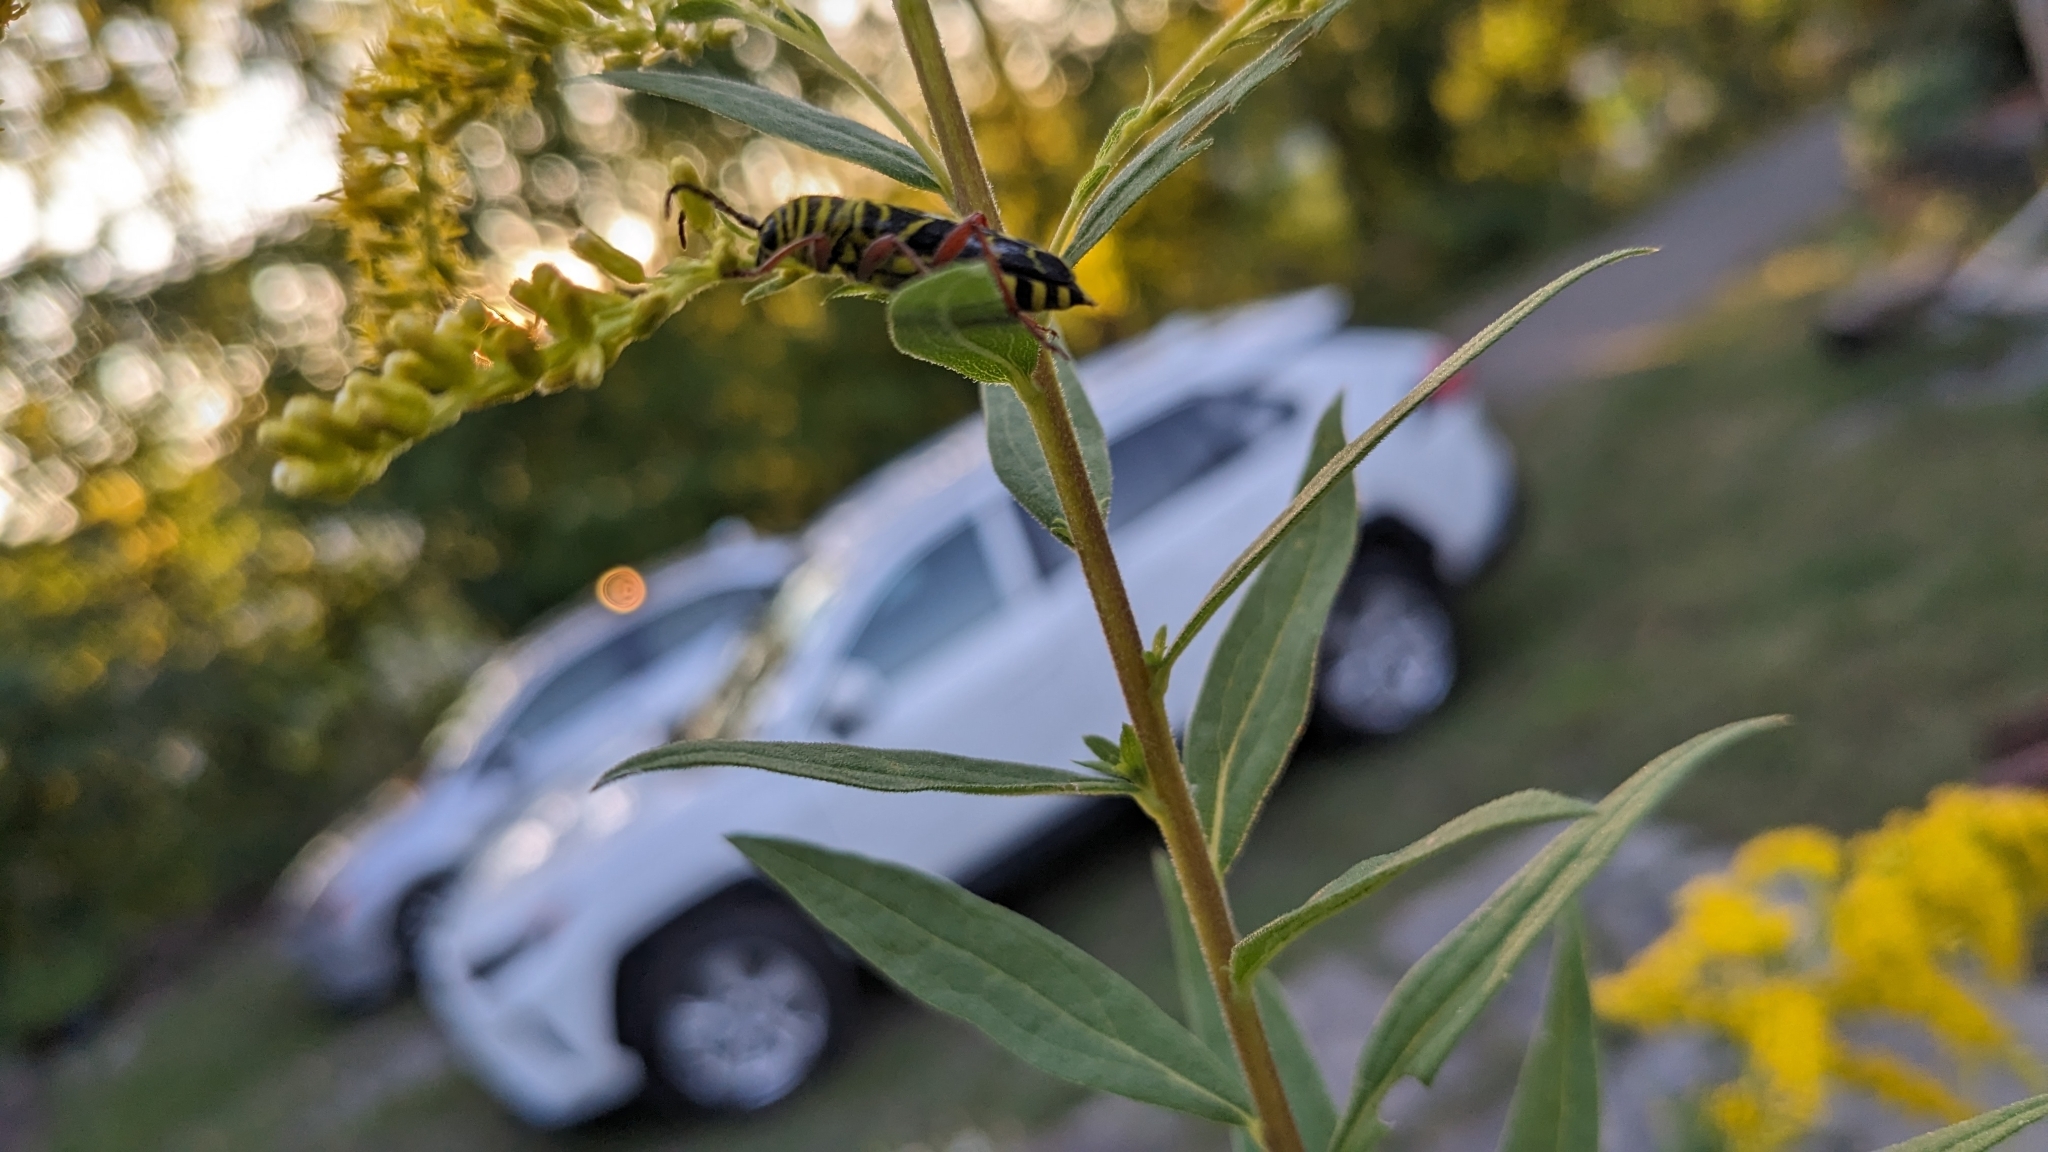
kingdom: Animalia
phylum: Arthropoda
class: Insecta
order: Coleoptera
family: Cerambycidae
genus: Megacyllene
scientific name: Megacyllene robiniae
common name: Locust borer
